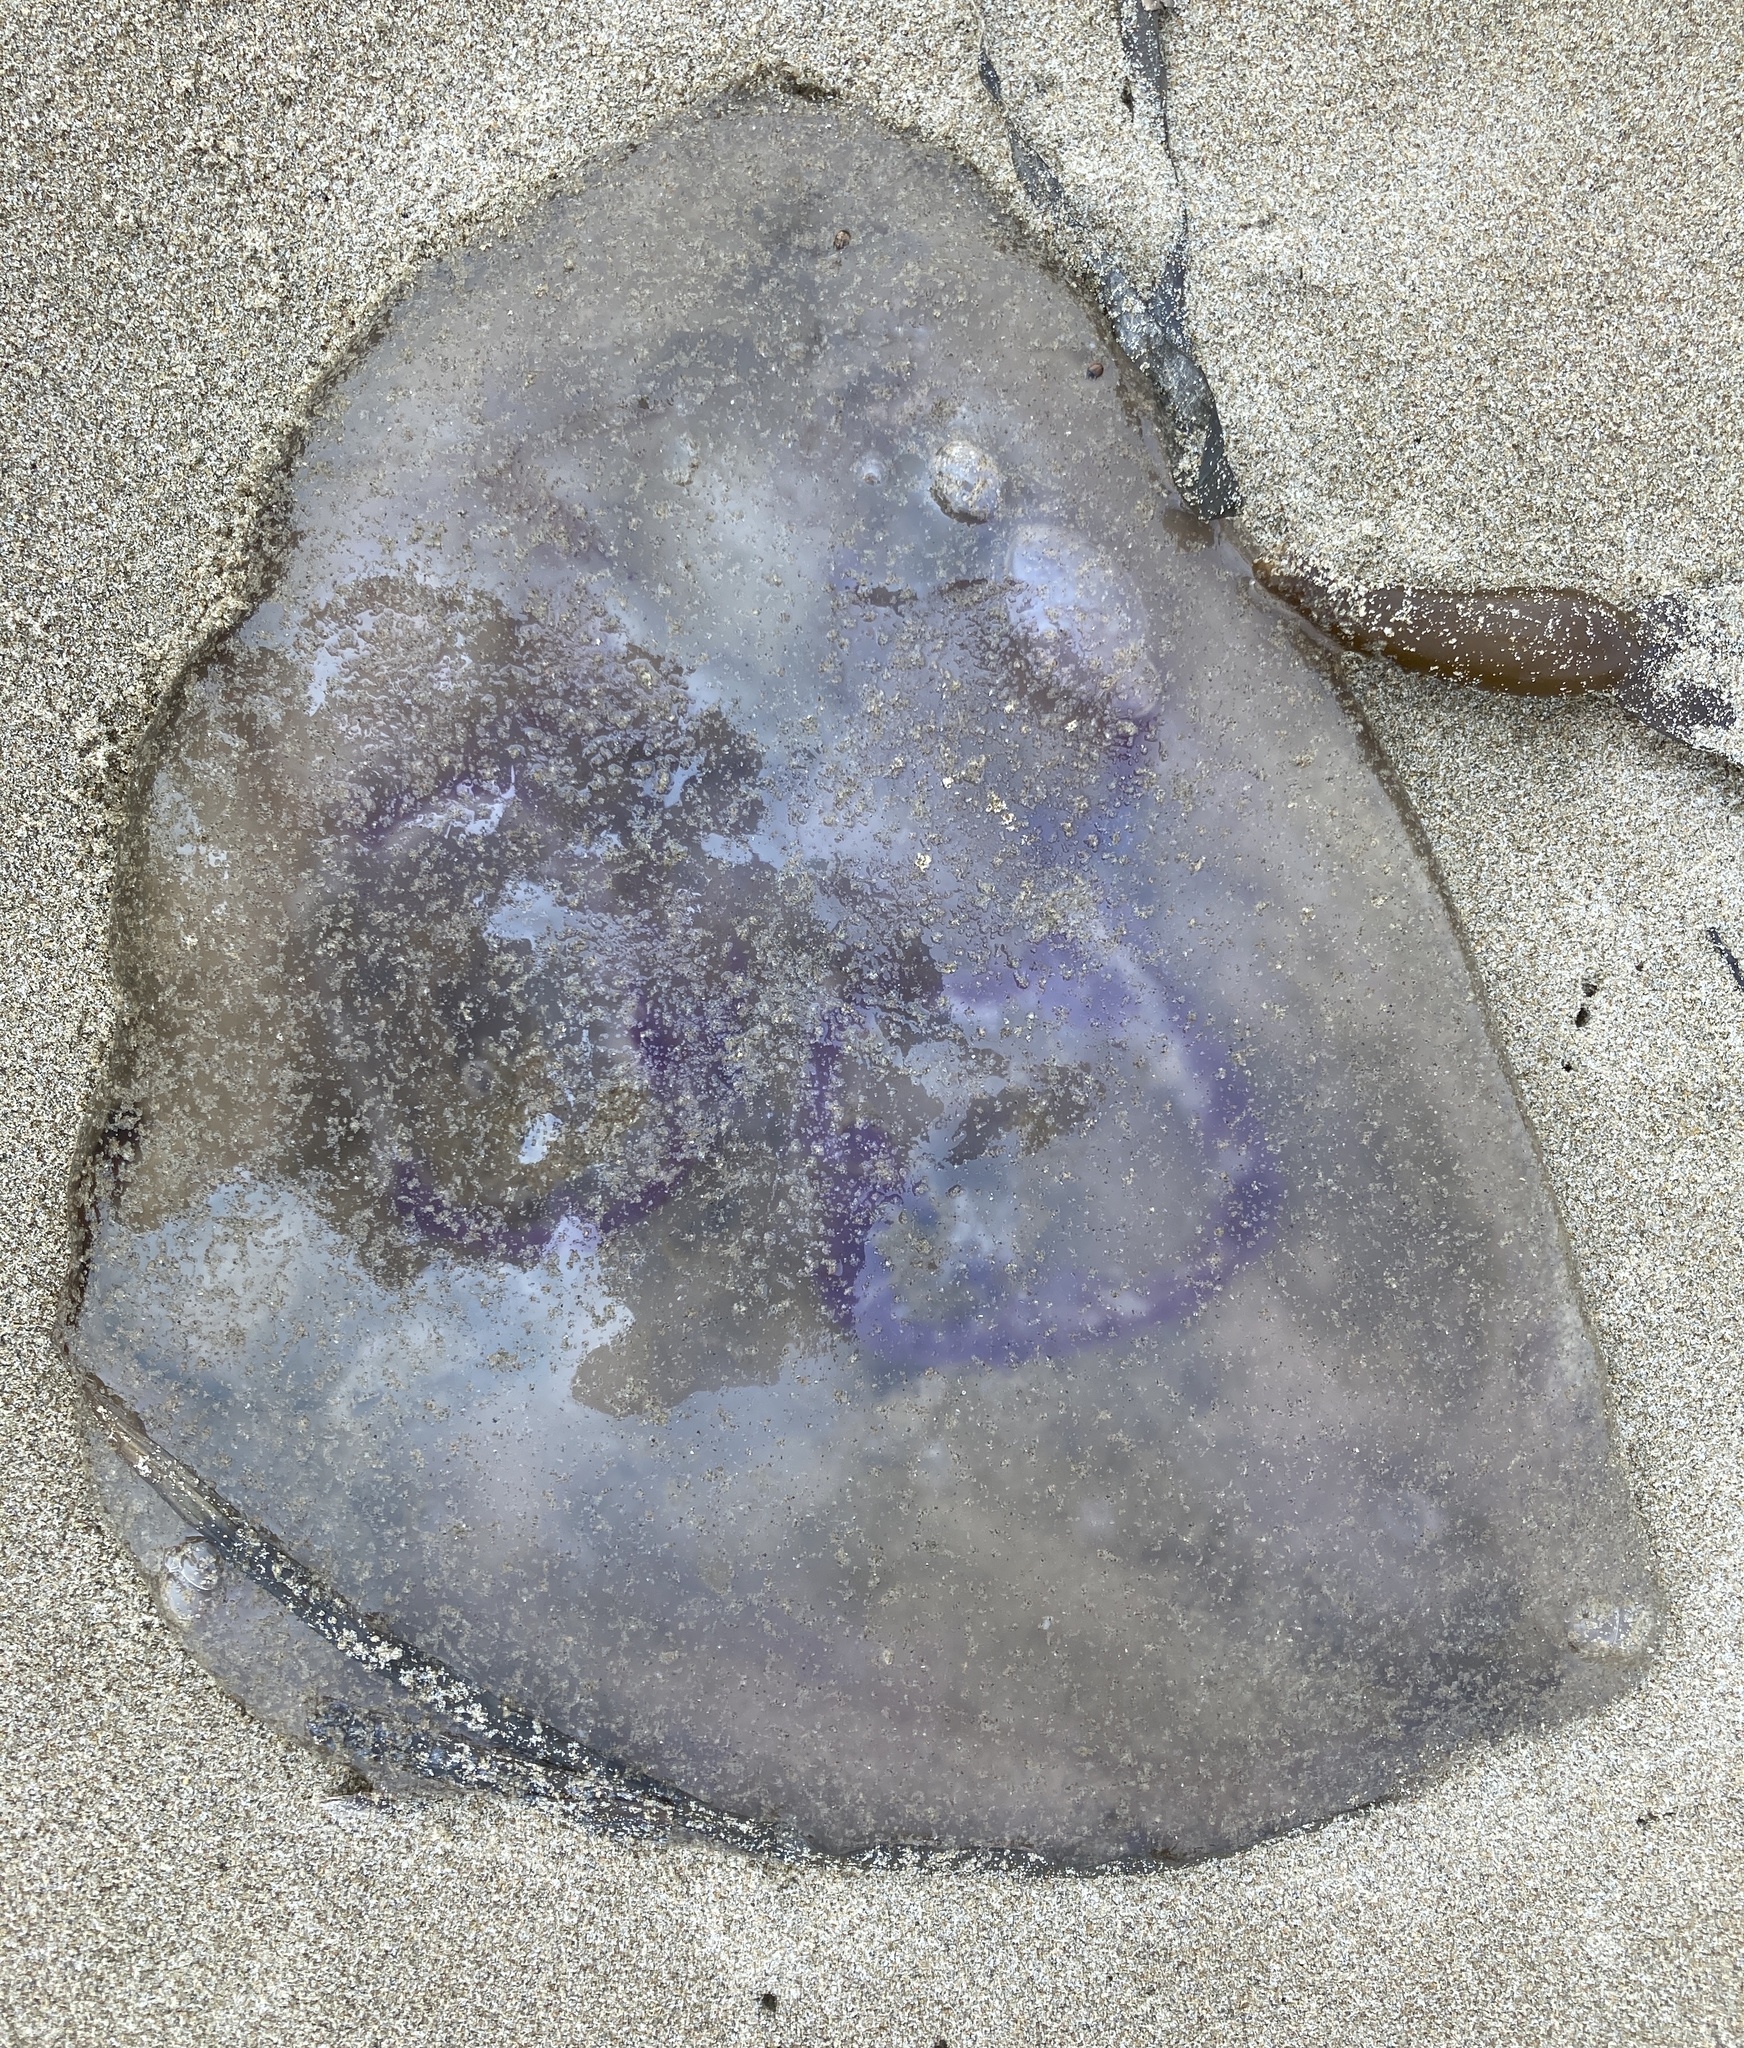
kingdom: Animalia
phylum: Cnidaria
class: Scyphozoa
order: Semaeostomeae
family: Ulmaridae
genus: Aurelia
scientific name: Aurelia labiata
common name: Pacific moon jelly
